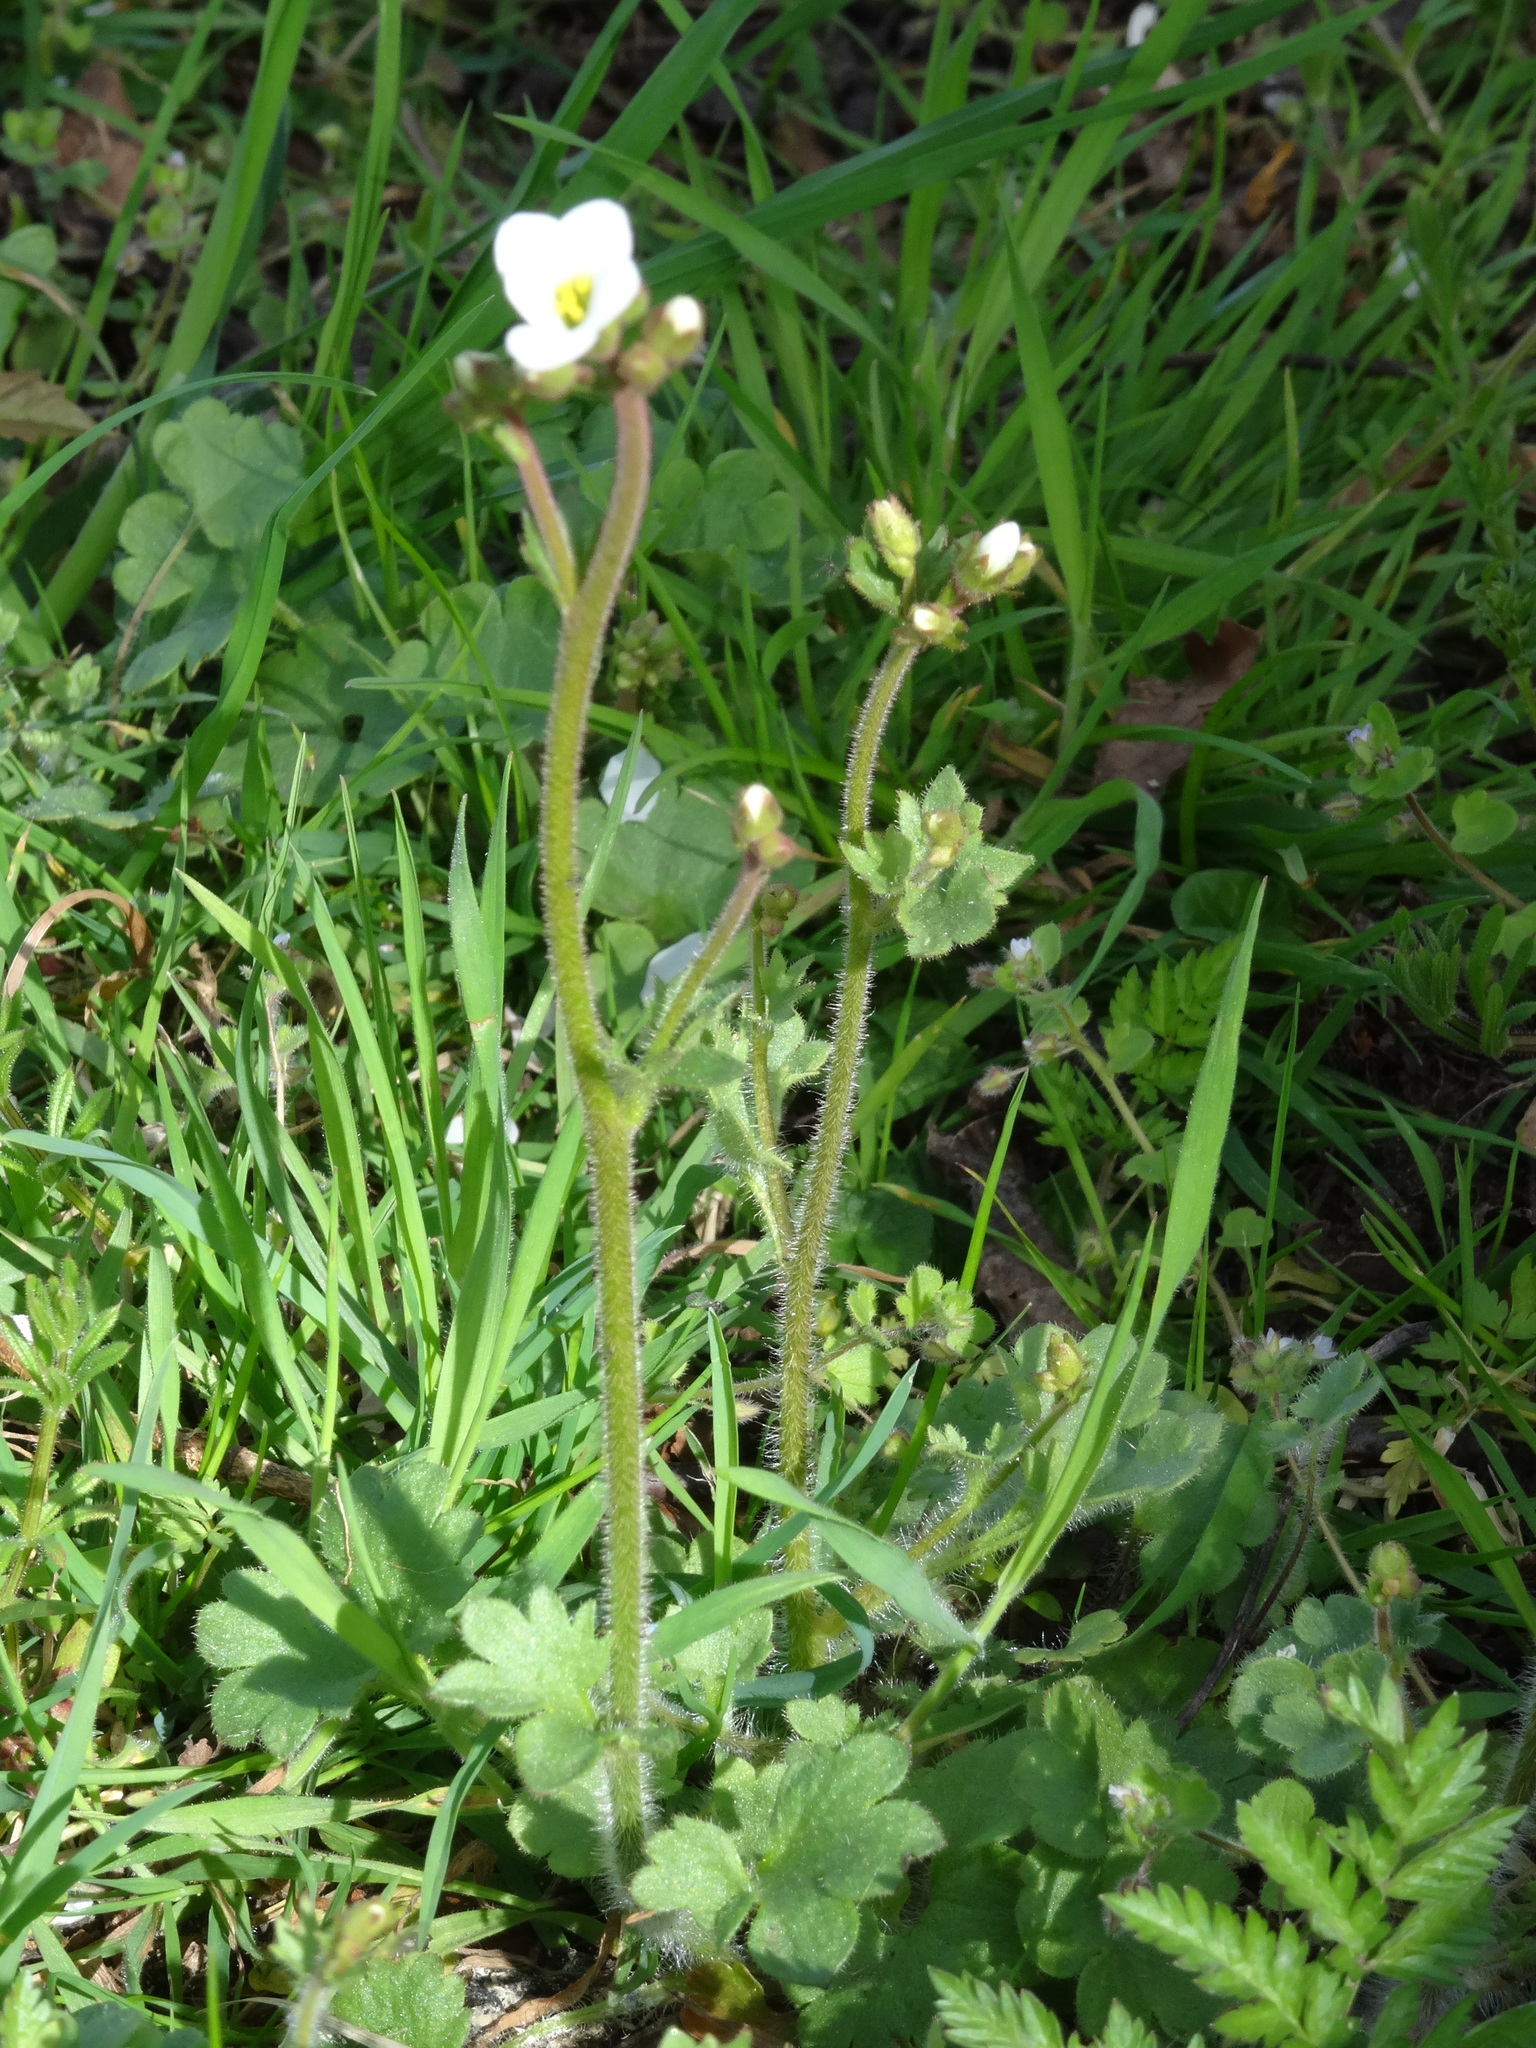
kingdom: Plantae
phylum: Tracheophyta
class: Magnoliopsida
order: Saxifragales
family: Saxifragaceae
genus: Saxifraga
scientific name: Saxifraga granulata
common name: Meadow saxifrage
